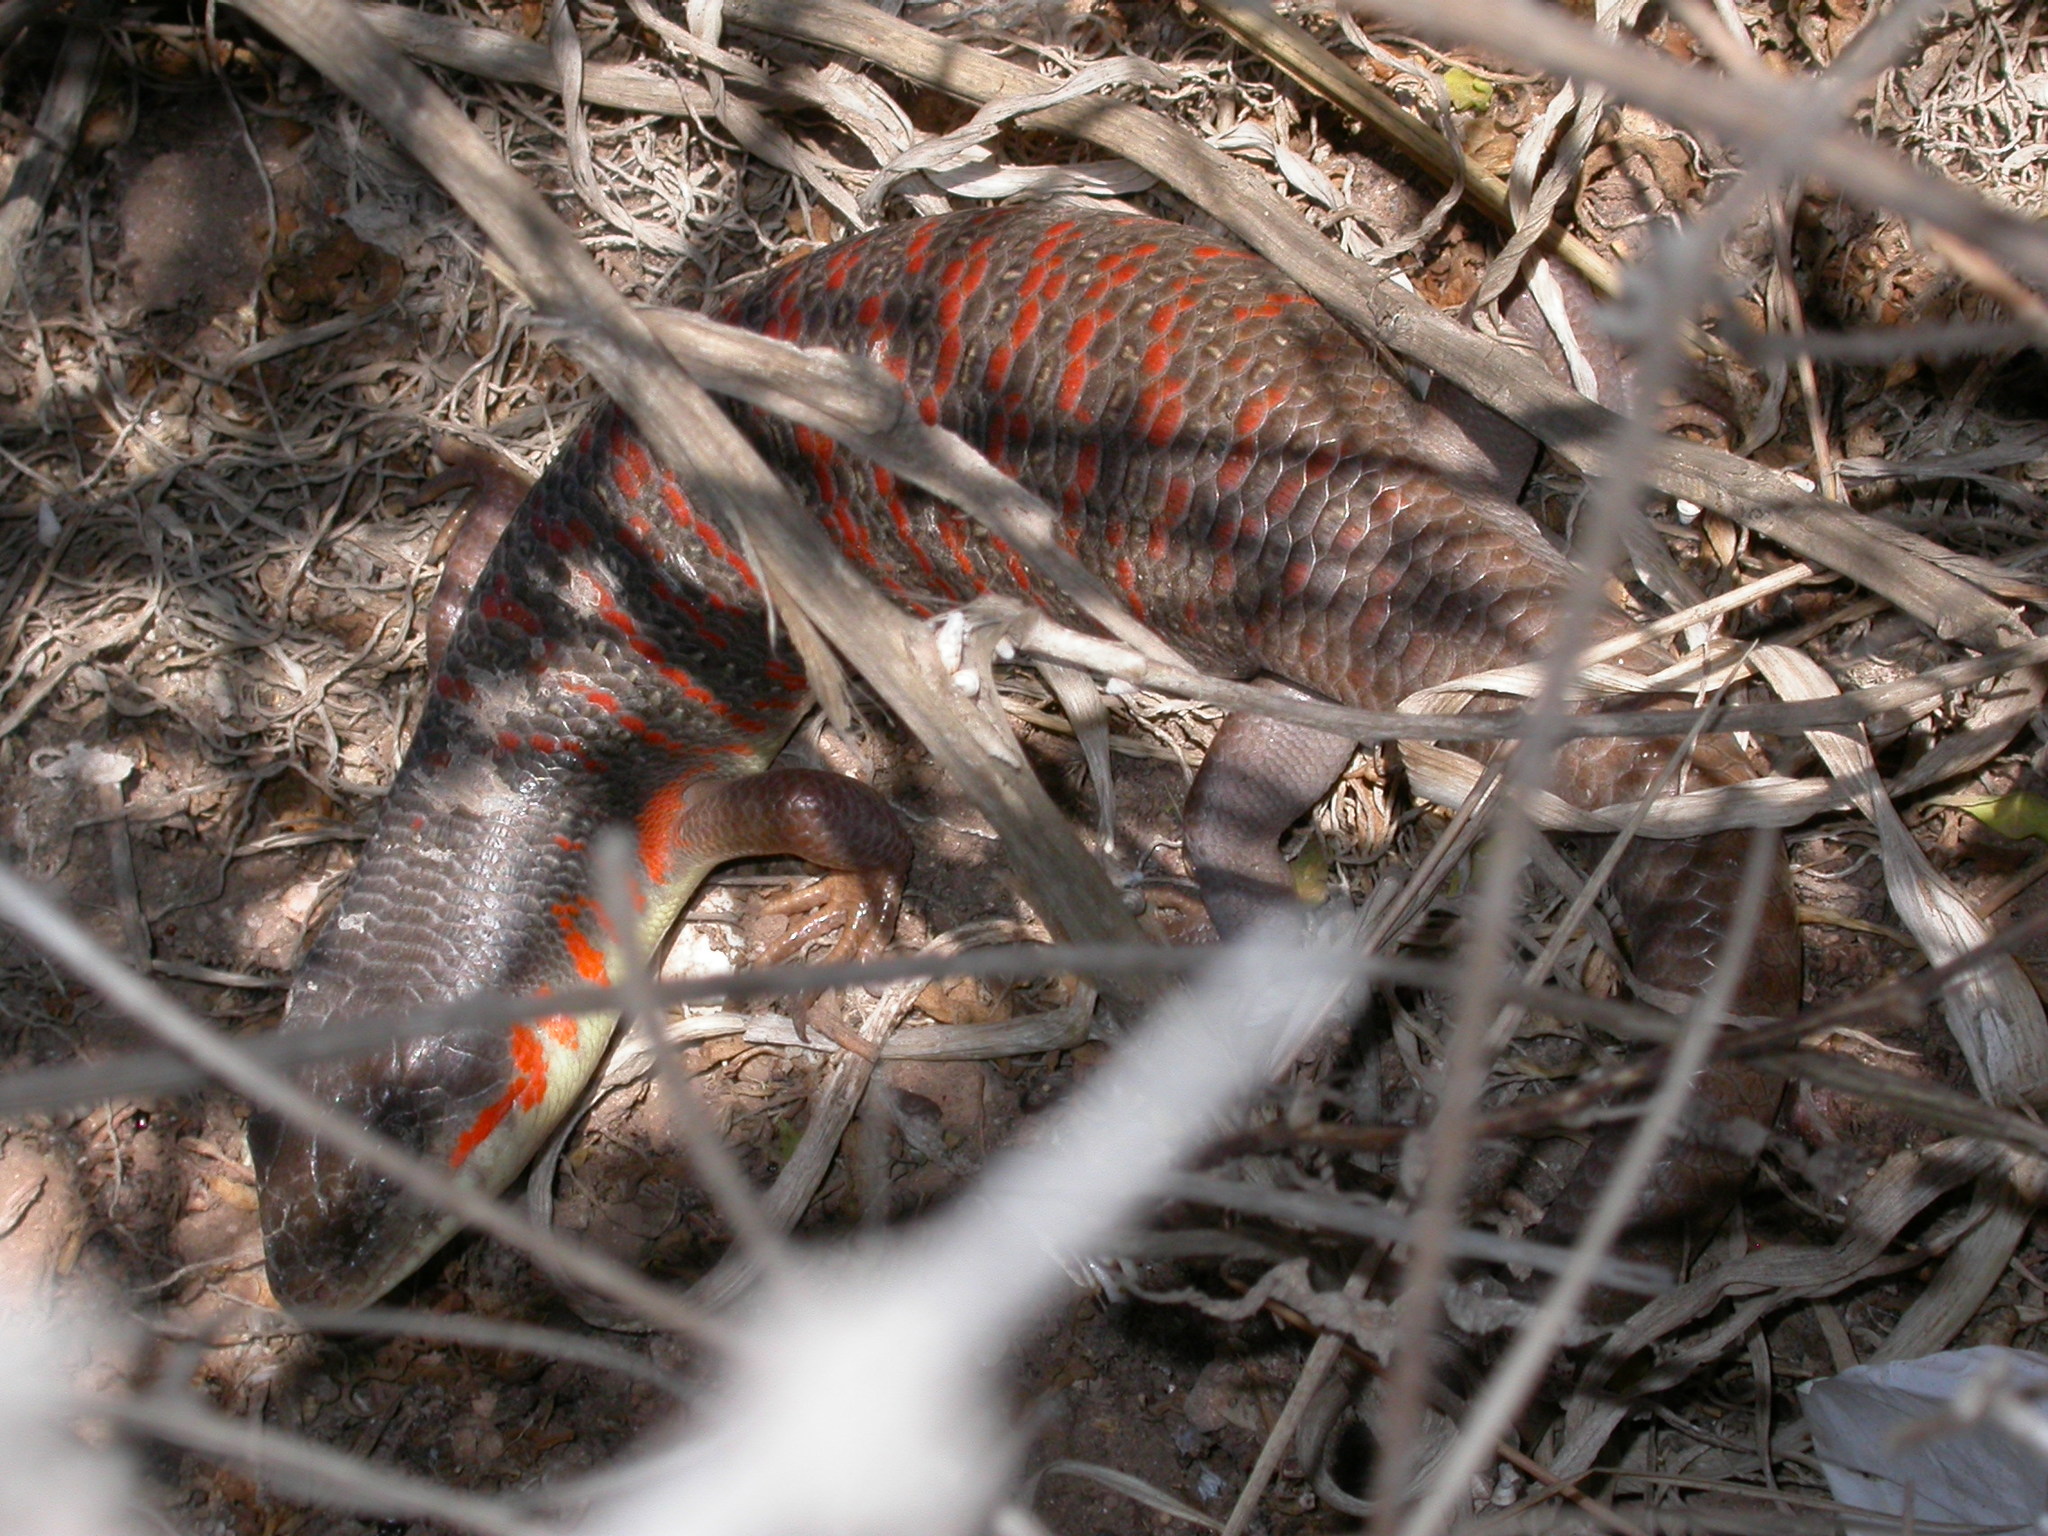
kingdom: Animalia
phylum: Chordata
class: Squamata
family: Scincidae
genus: Eumeces
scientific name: Eumeces algeriensis
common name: Algerian orange-tailed skink
